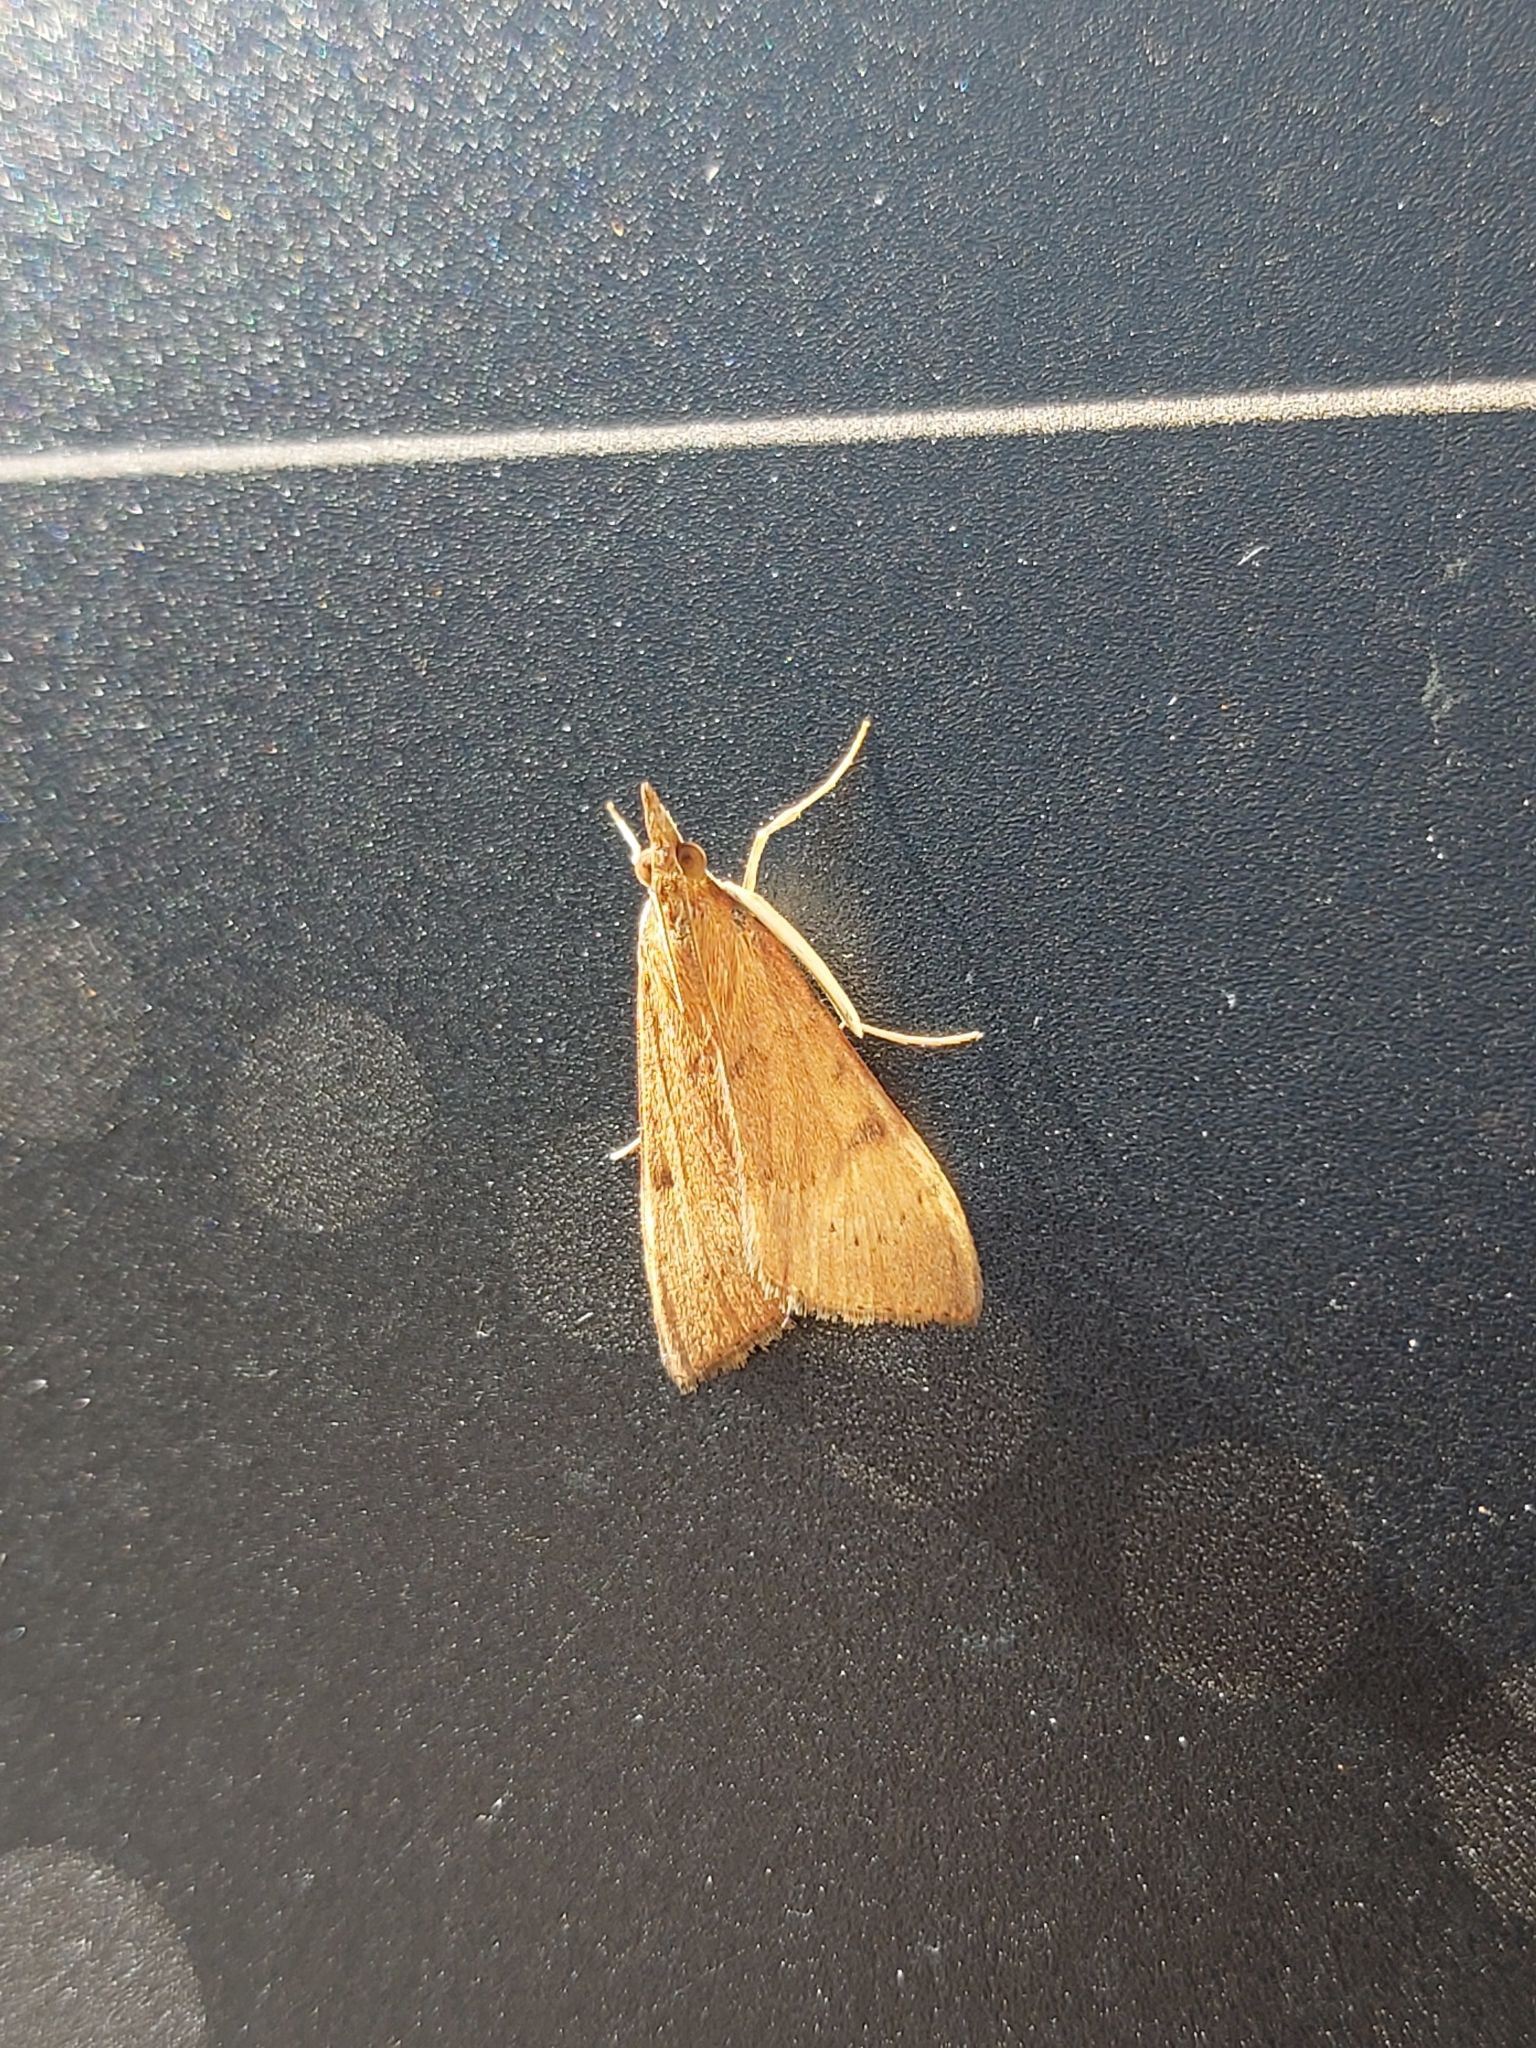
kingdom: Animalia
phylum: Arthropoda
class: Insecta
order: Lepidoptera
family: Crambidae
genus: Uresiphita
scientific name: Uresiphita ornithopteralis
